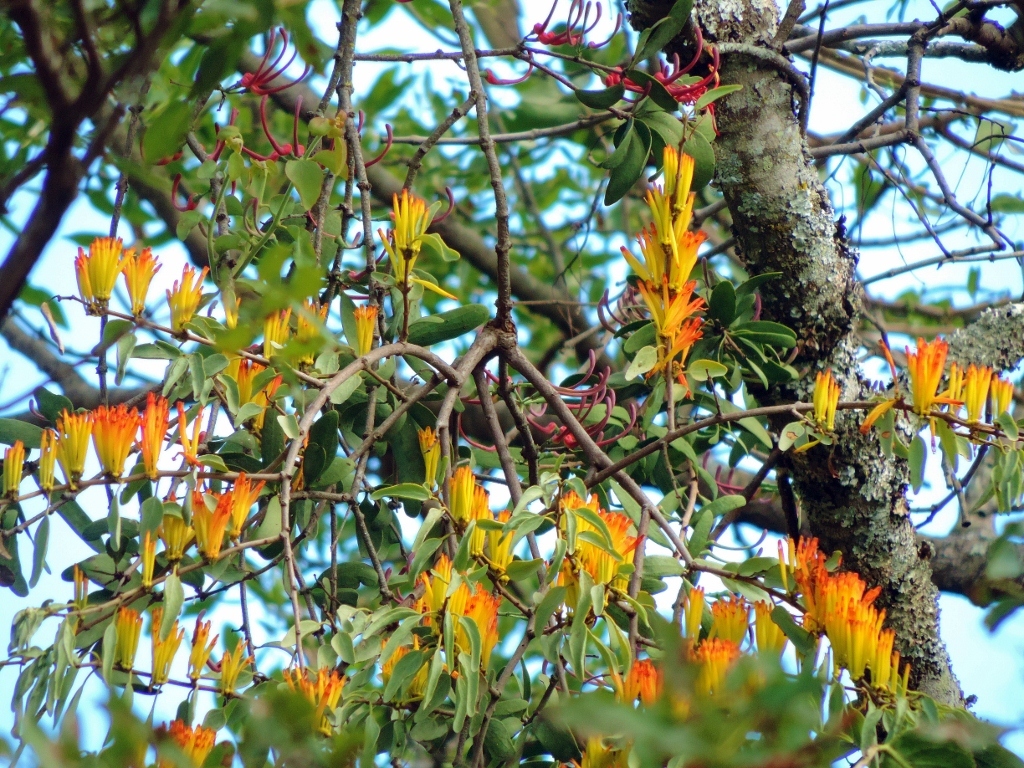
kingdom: Plantae
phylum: Tracheophyta
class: Magnoliopsida
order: Santalales
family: Loranthaceae
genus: Agelanthus
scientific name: Agelanthus pungu
